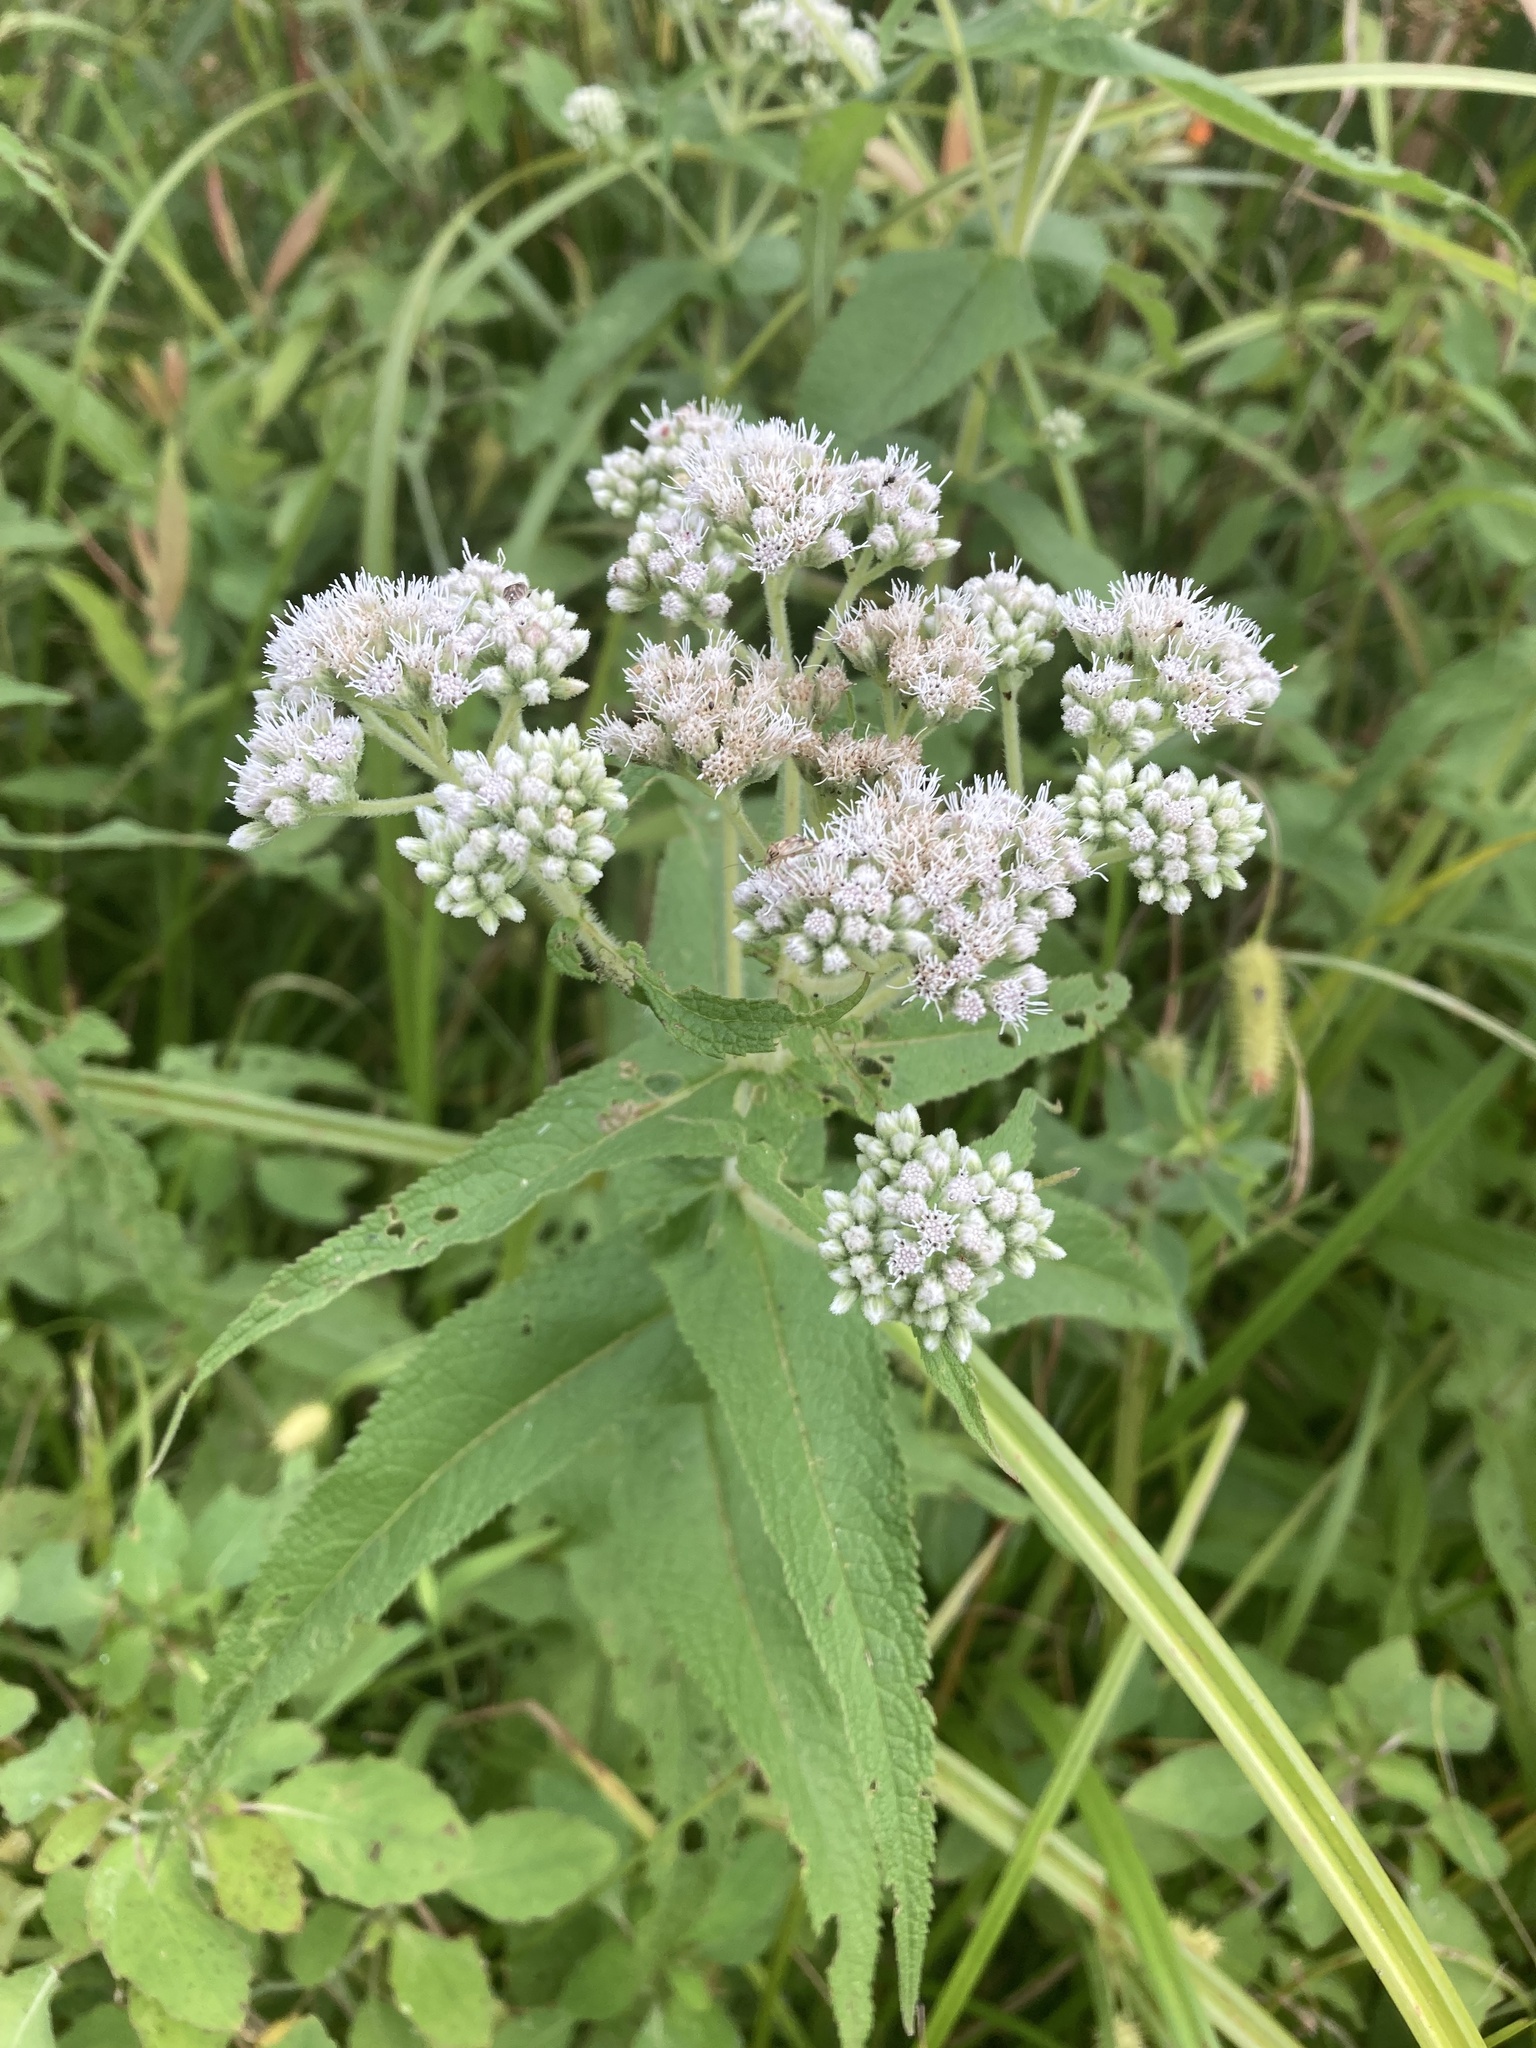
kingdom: Plantae
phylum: Tracheophyta
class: Magnoliopsida
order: Asterales
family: Asteraceae
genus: Eupatorium
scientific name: Eupatorium perfoliatum
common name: Boneset
